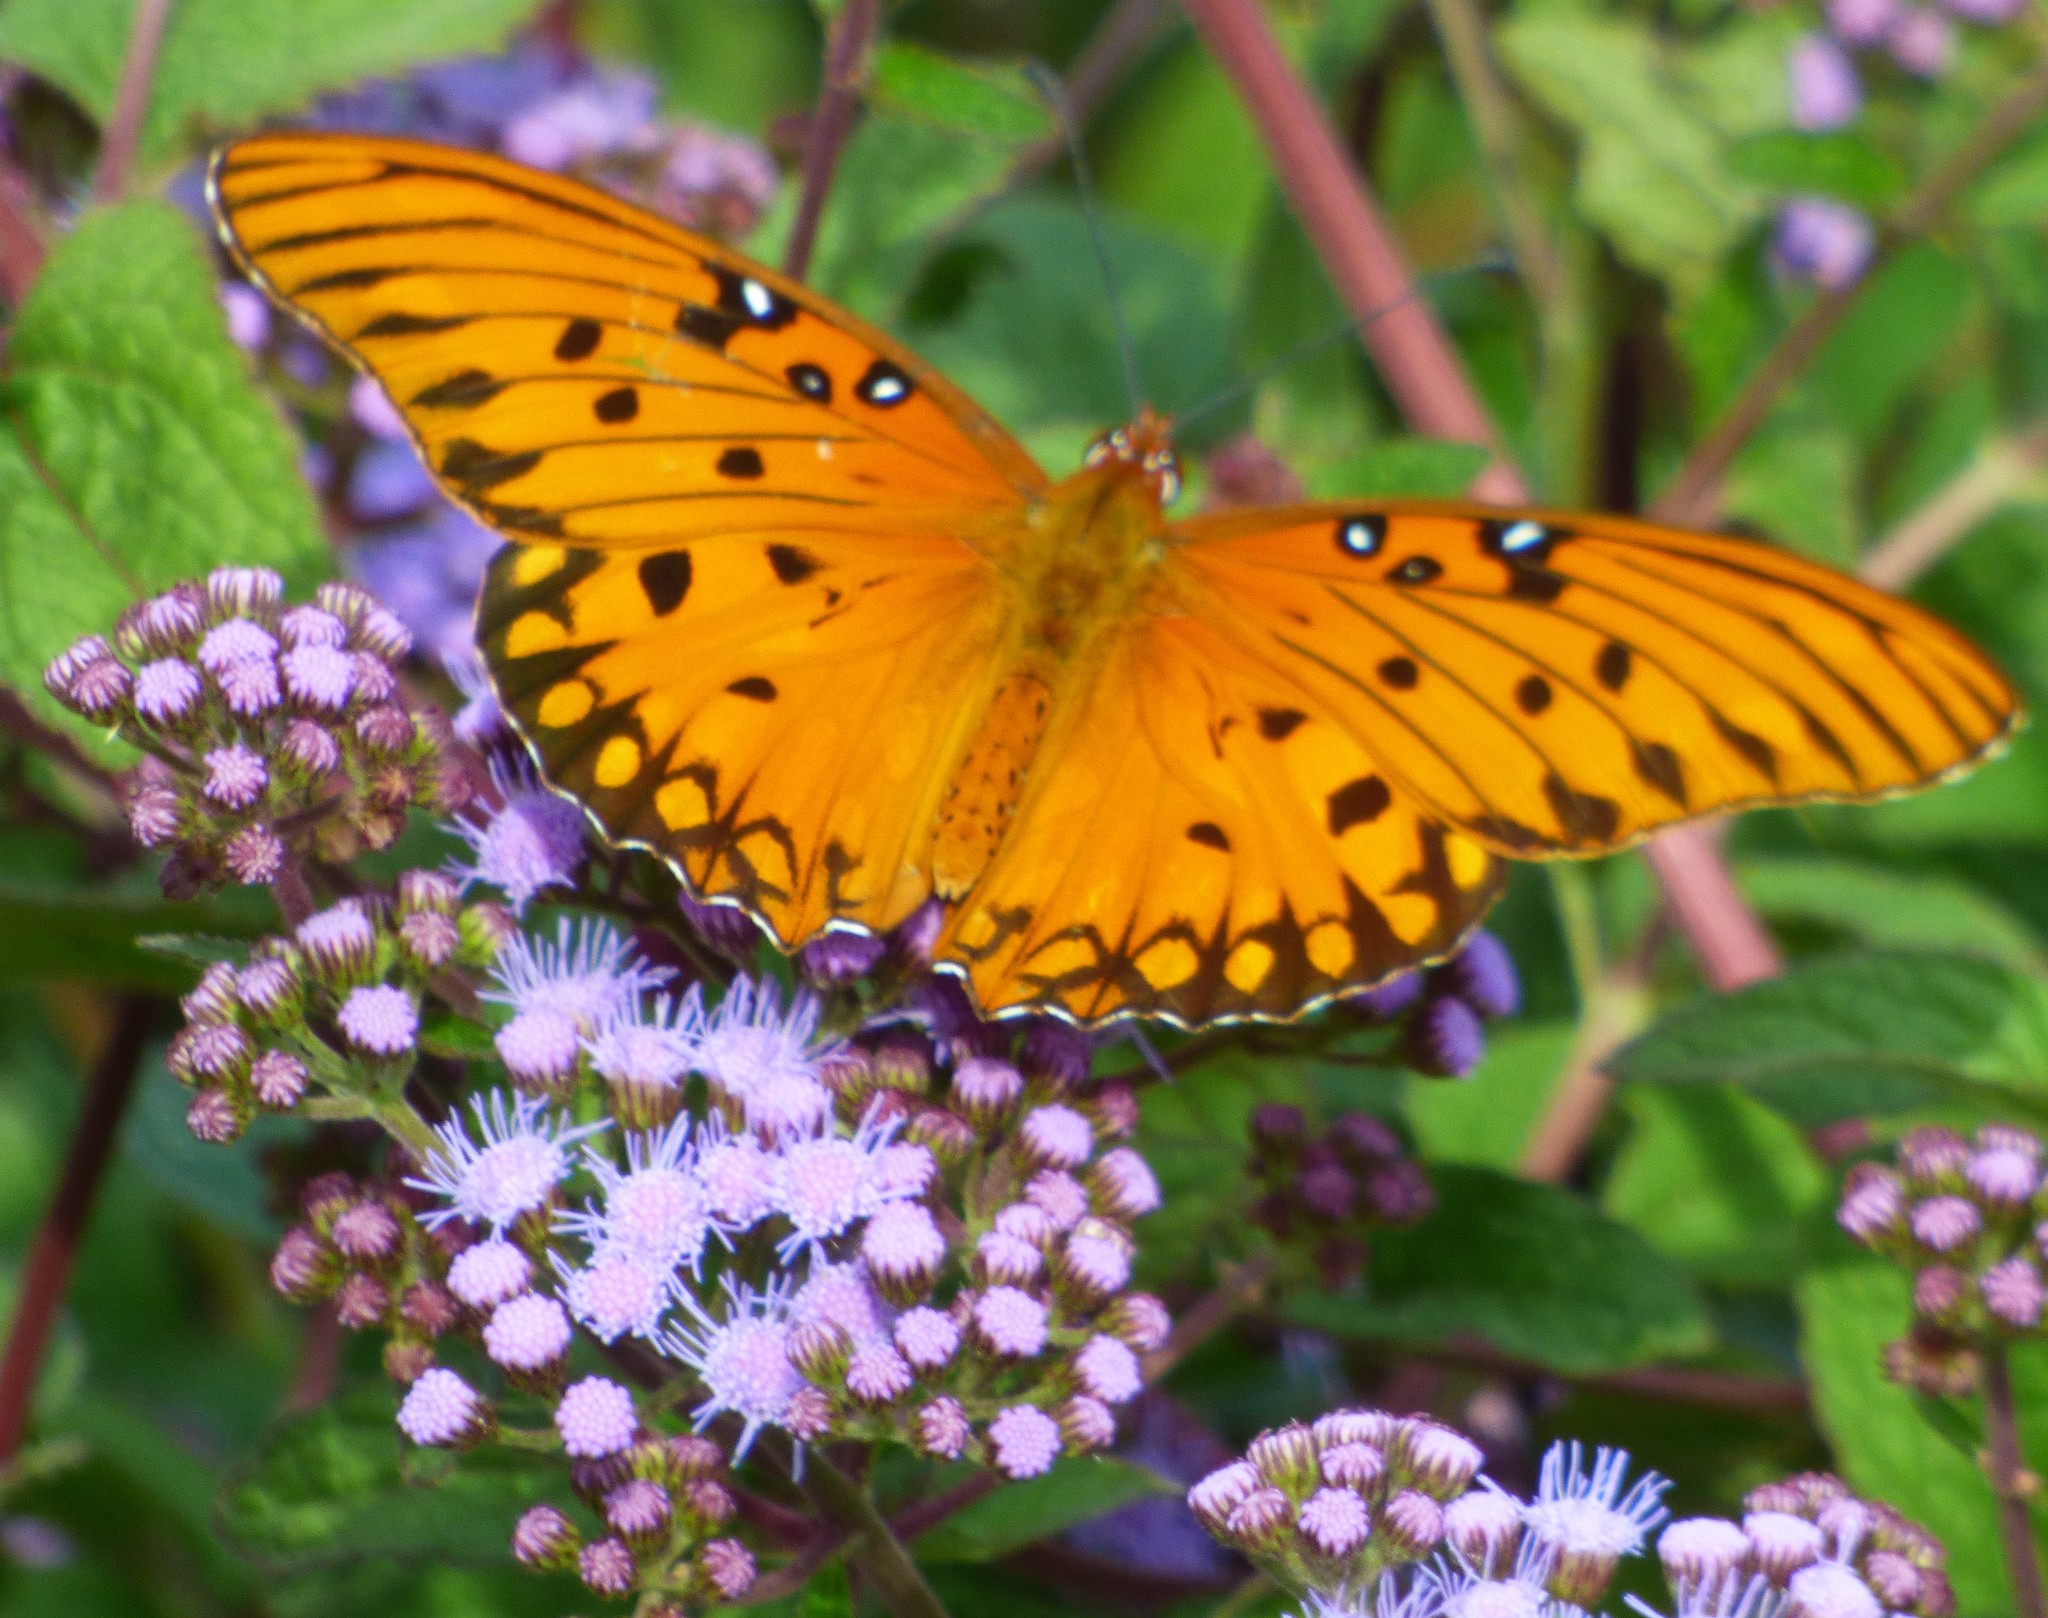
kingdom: Animalia
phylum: Arthropoda
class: Insecta
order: Lepidoptera
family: Nymphalidae
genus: Dione
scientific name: Dione vanillae
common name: Gulf fritillary
